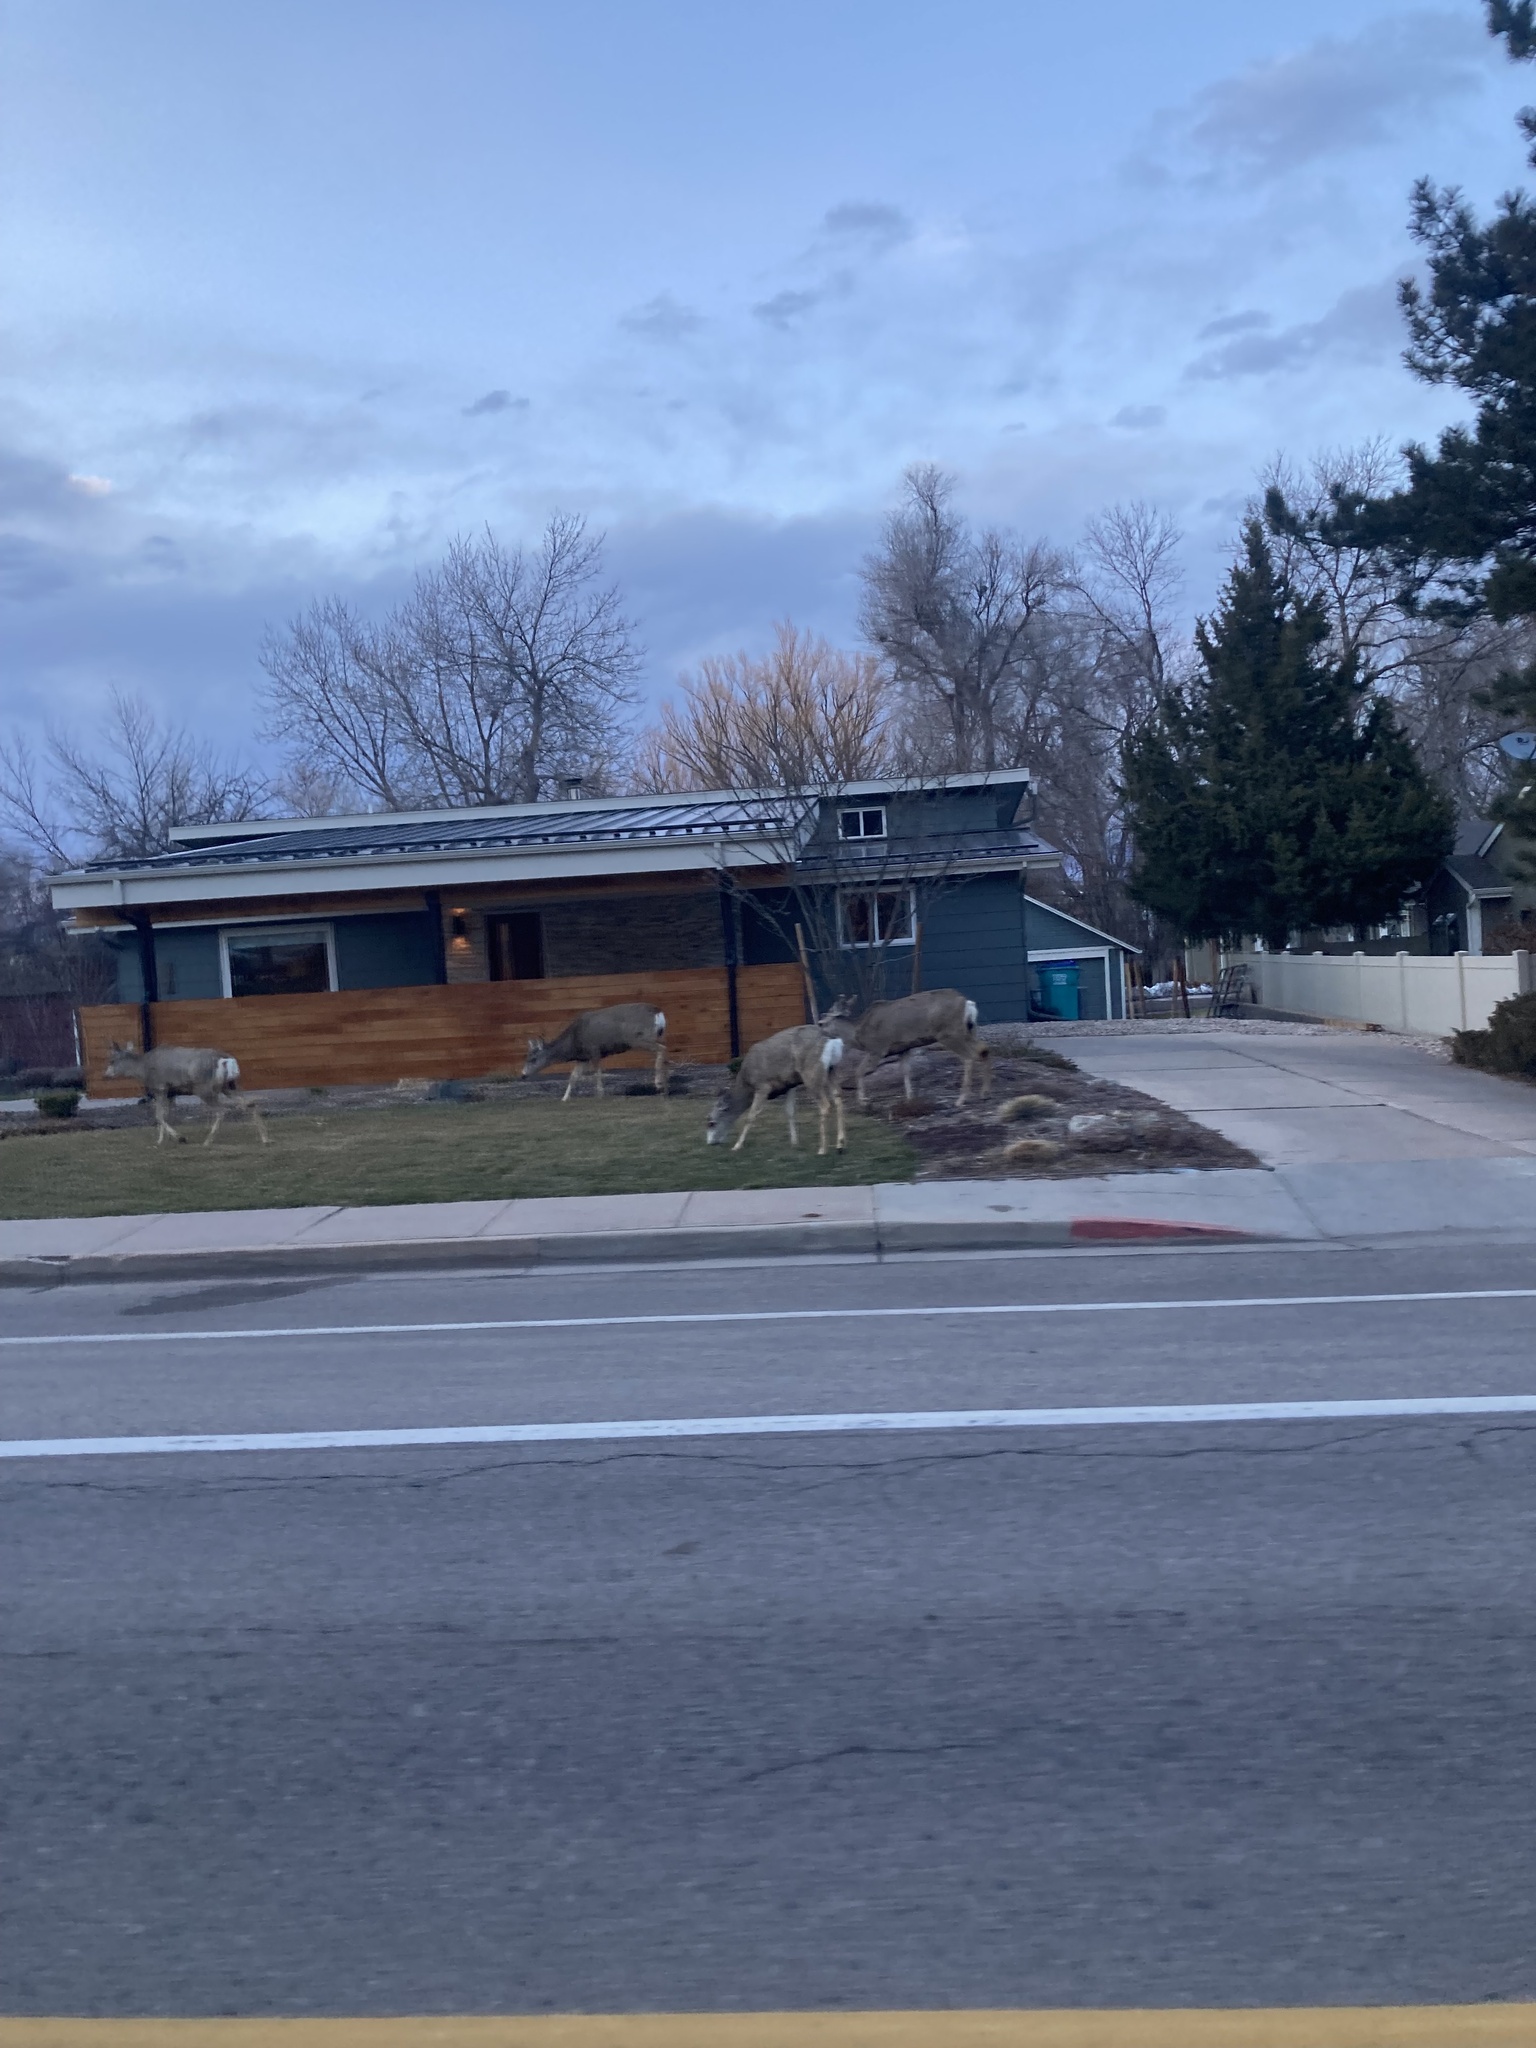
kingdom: Animalia
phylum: Chordata
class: Mammalia
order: Artiodactyla
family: Cervidae
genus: Odocoileus
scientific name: Odocoileus hemionus
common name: Mule deer
